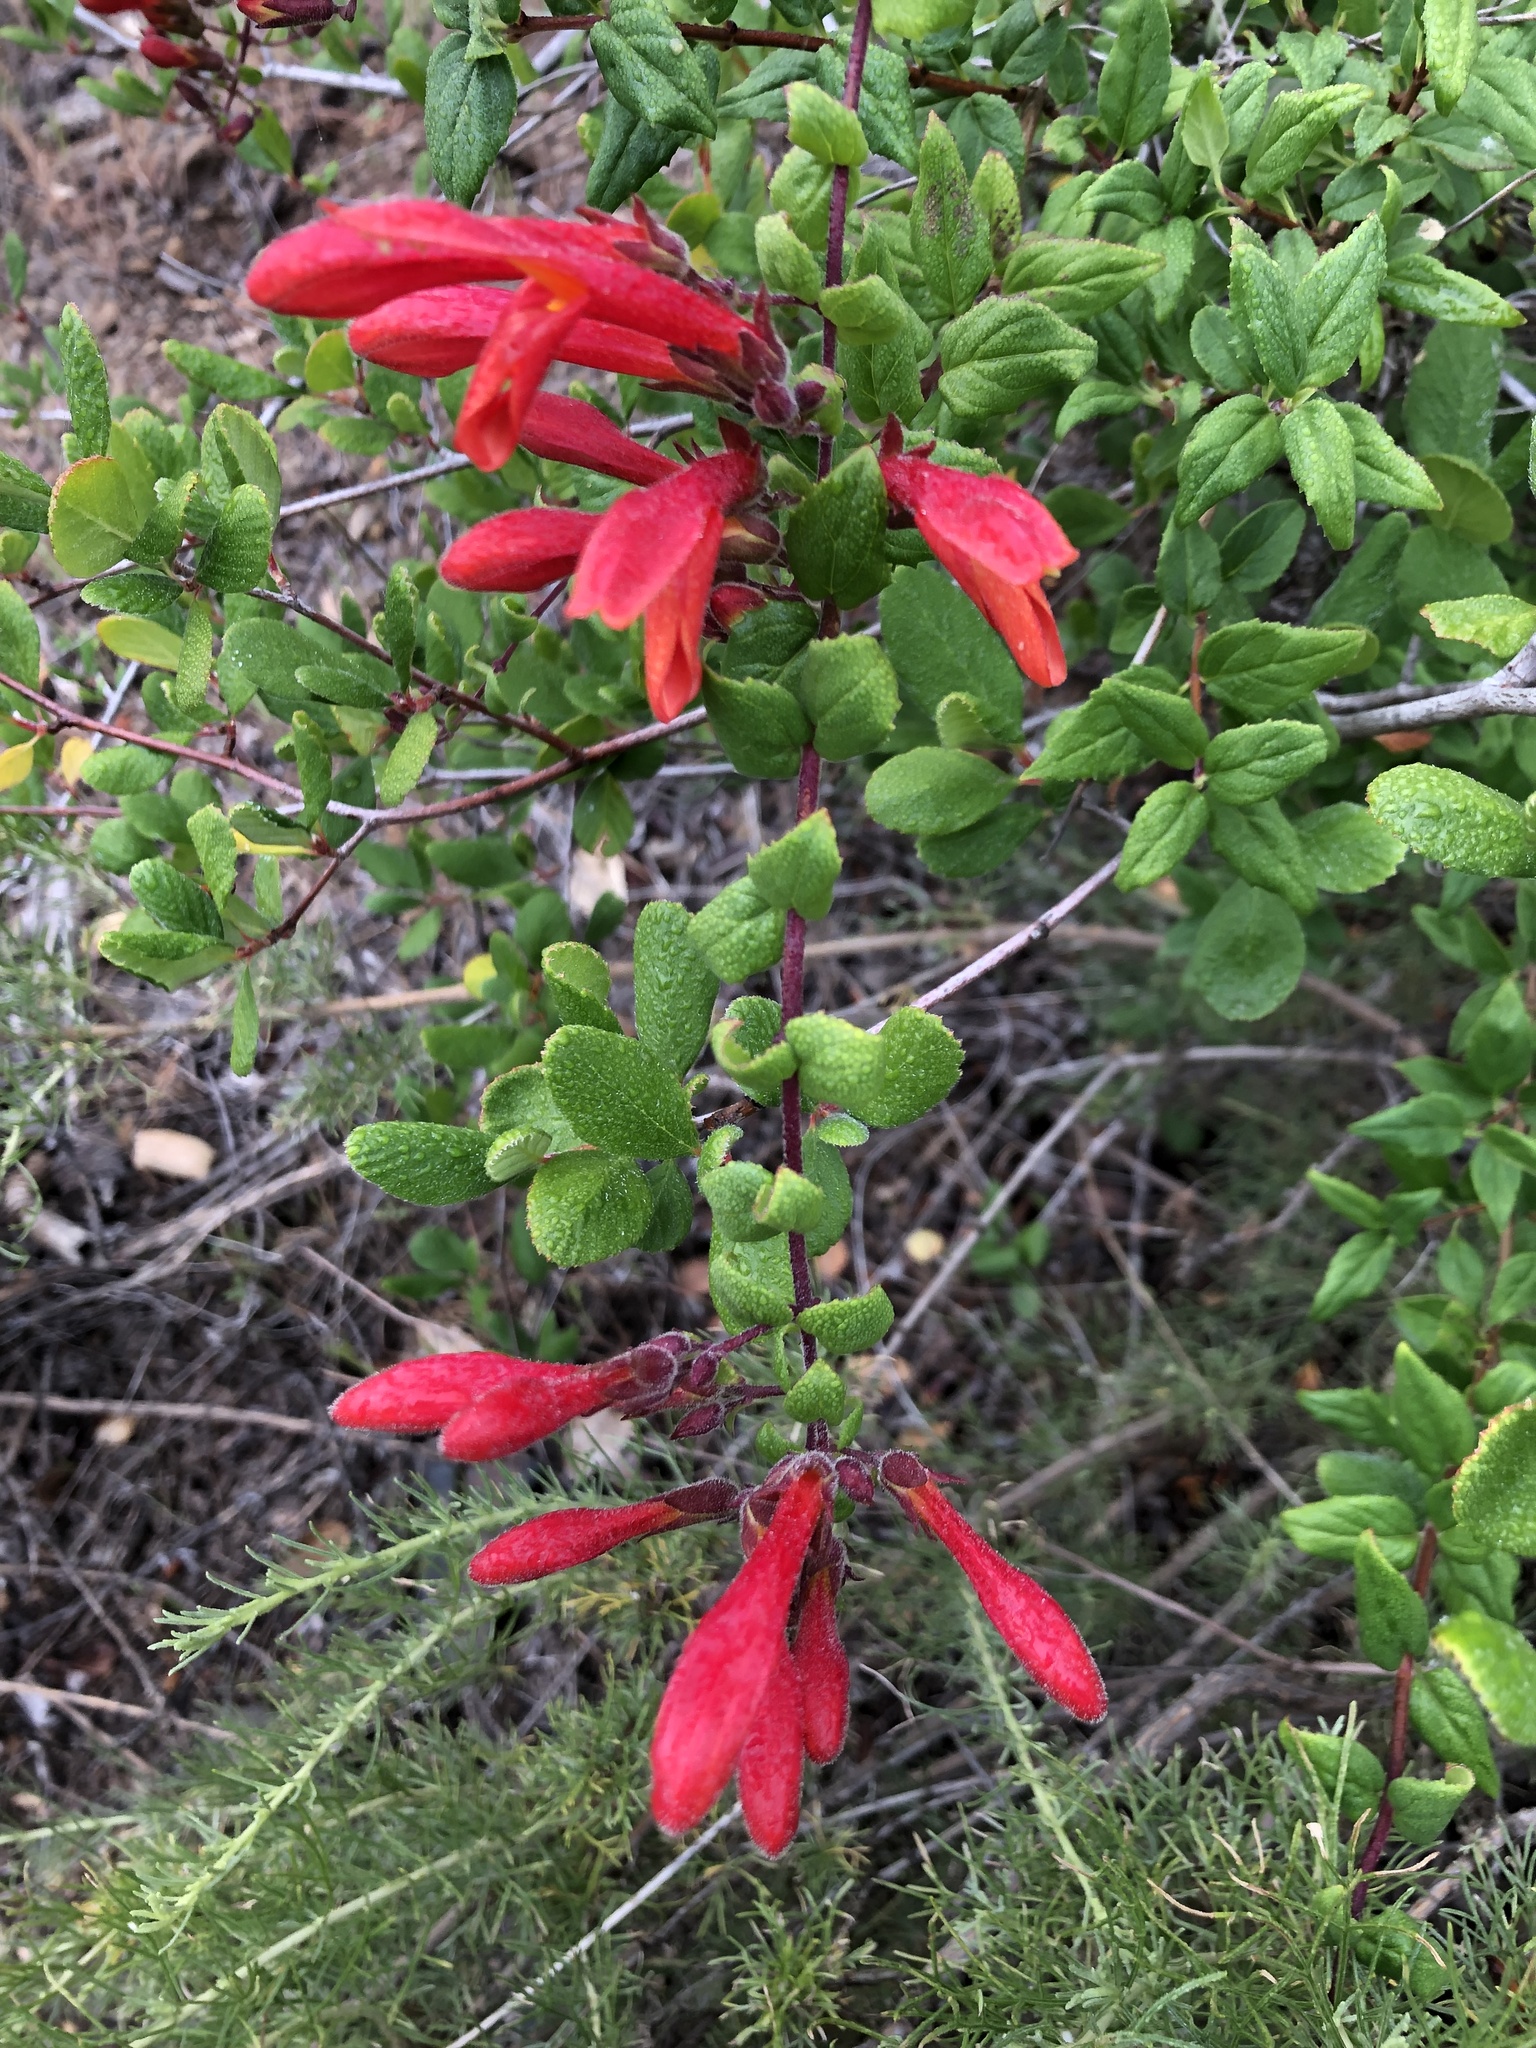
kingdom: Plantae
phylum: Tracheophyta
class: Magnoliopsida
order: Lamiales
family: Plantaginaceae
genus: Keckiella
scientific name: Keckiella cordifolia
